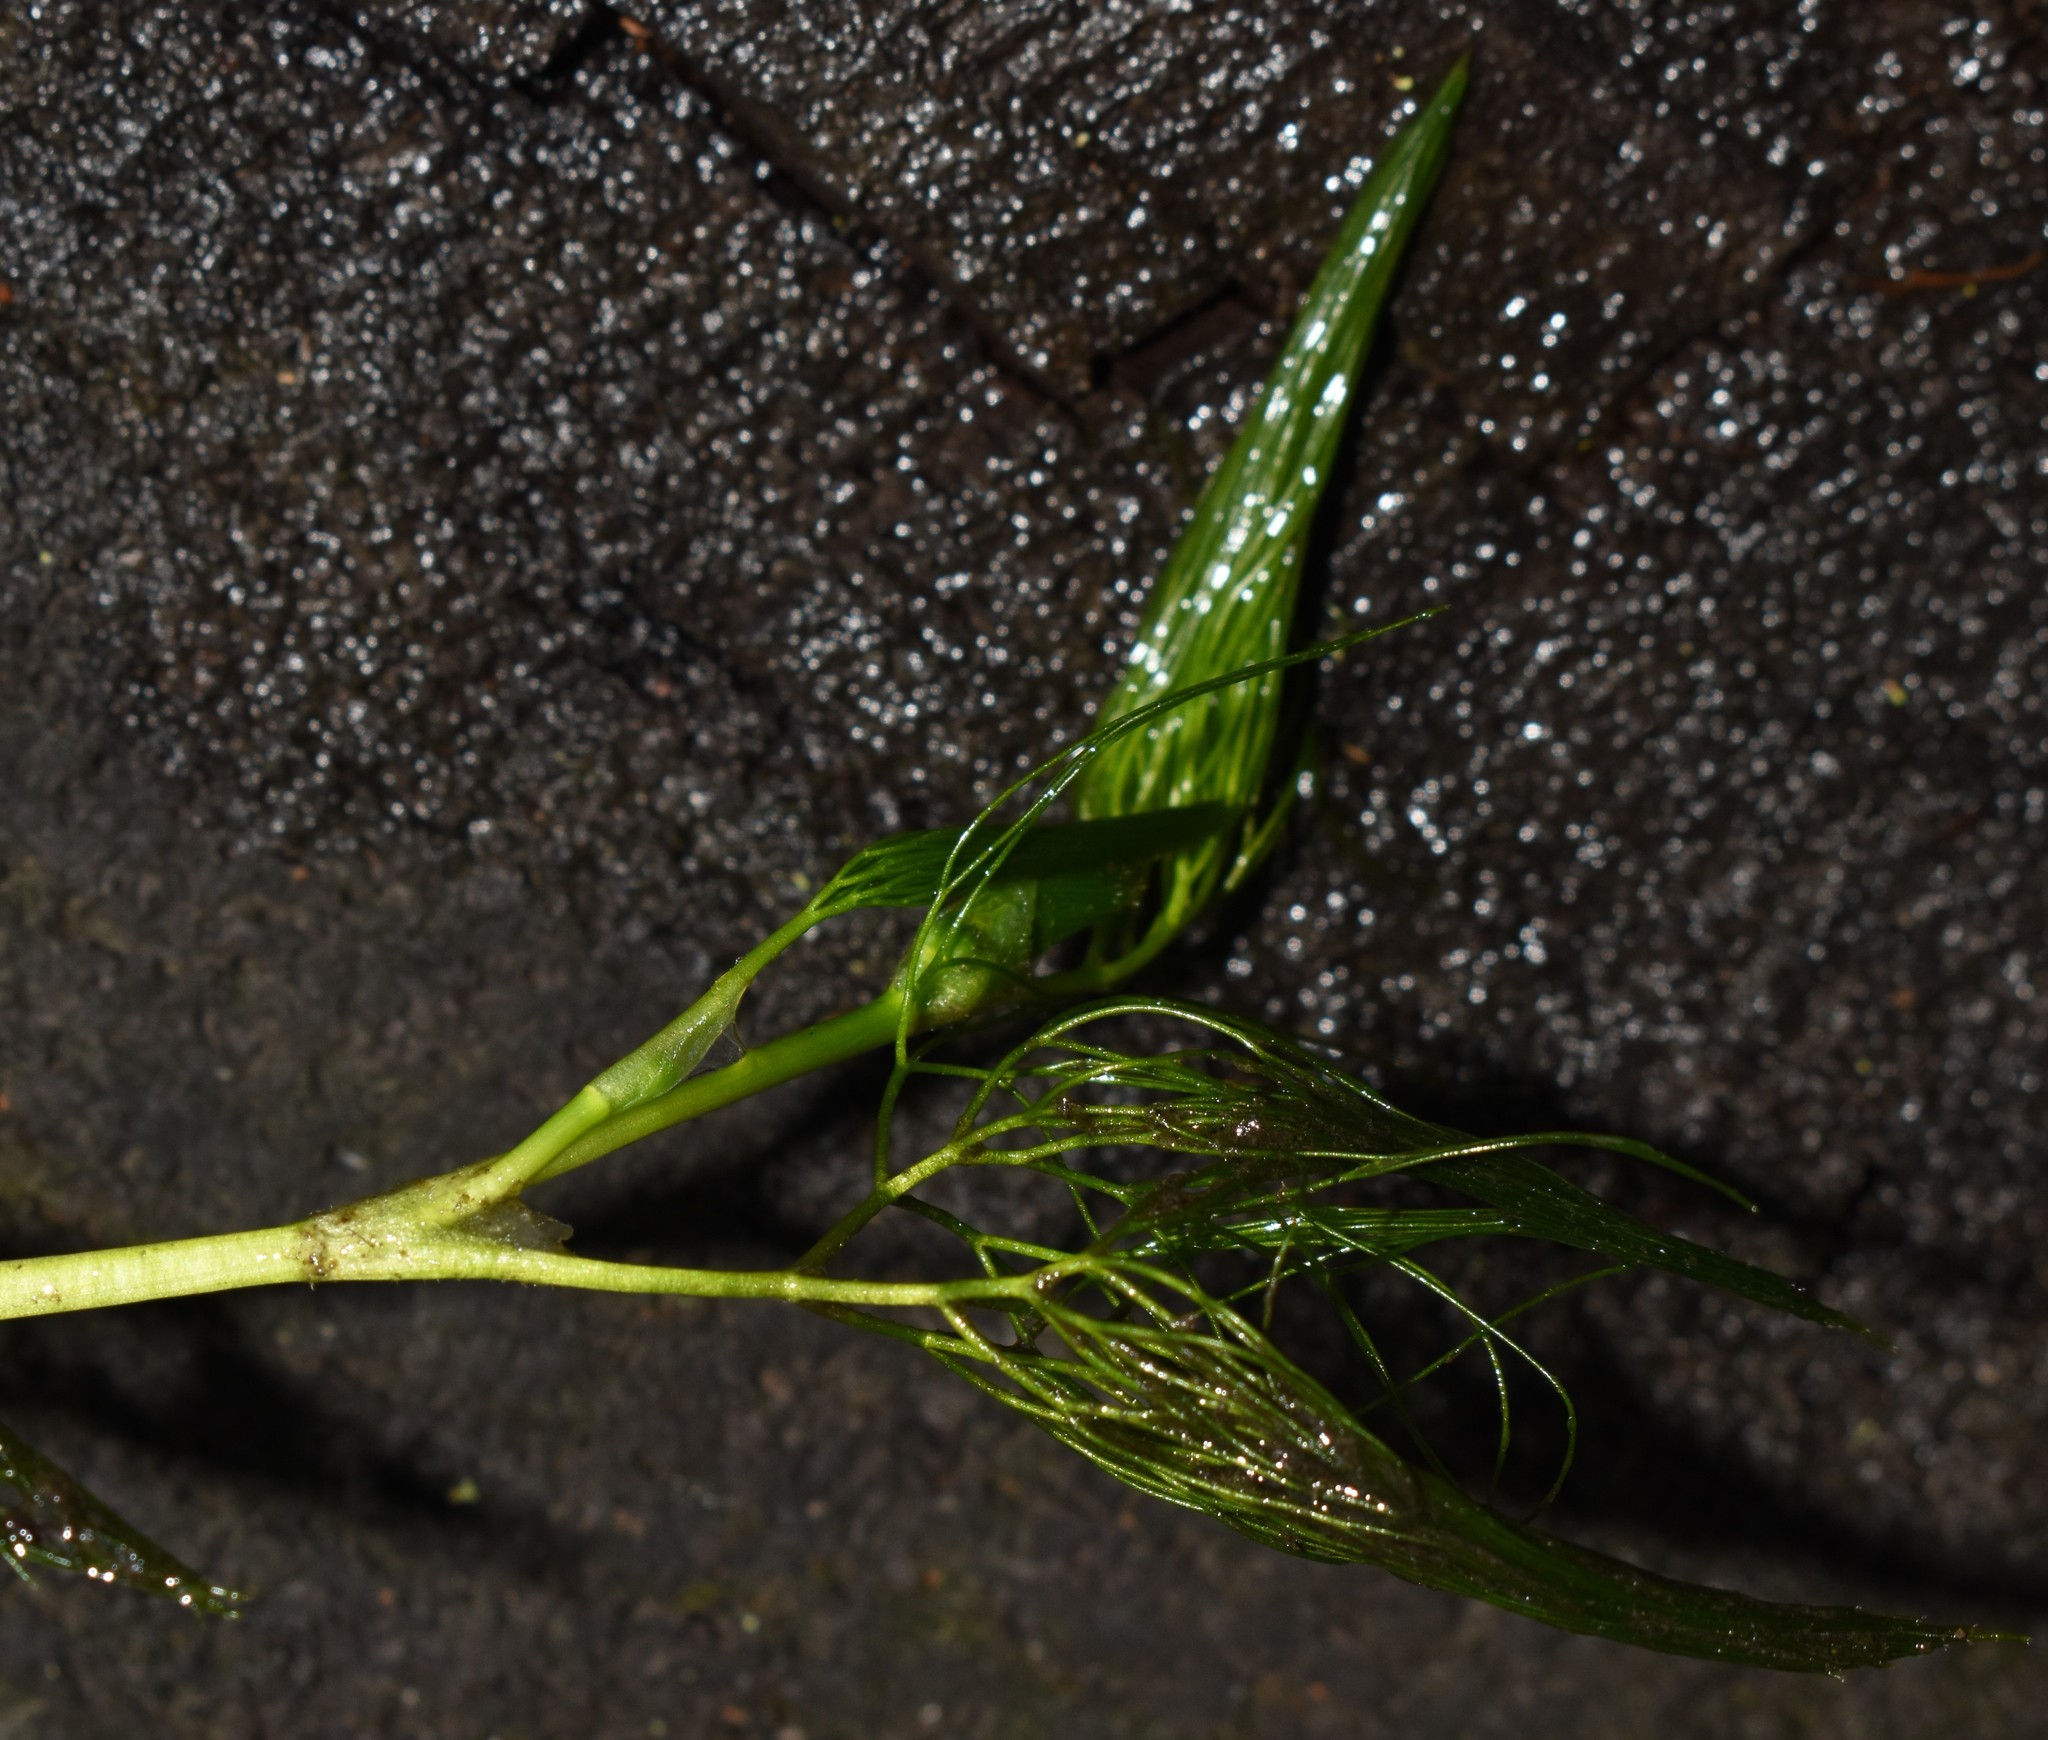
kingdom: Plantae
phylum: Tracheophyta
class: Magnoliopsida
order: Ranunculales
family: Ranunculaceae
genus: Ranunculus
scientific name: Ranunculus trichophyllus
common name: Thread-leaved water-crowfoot
